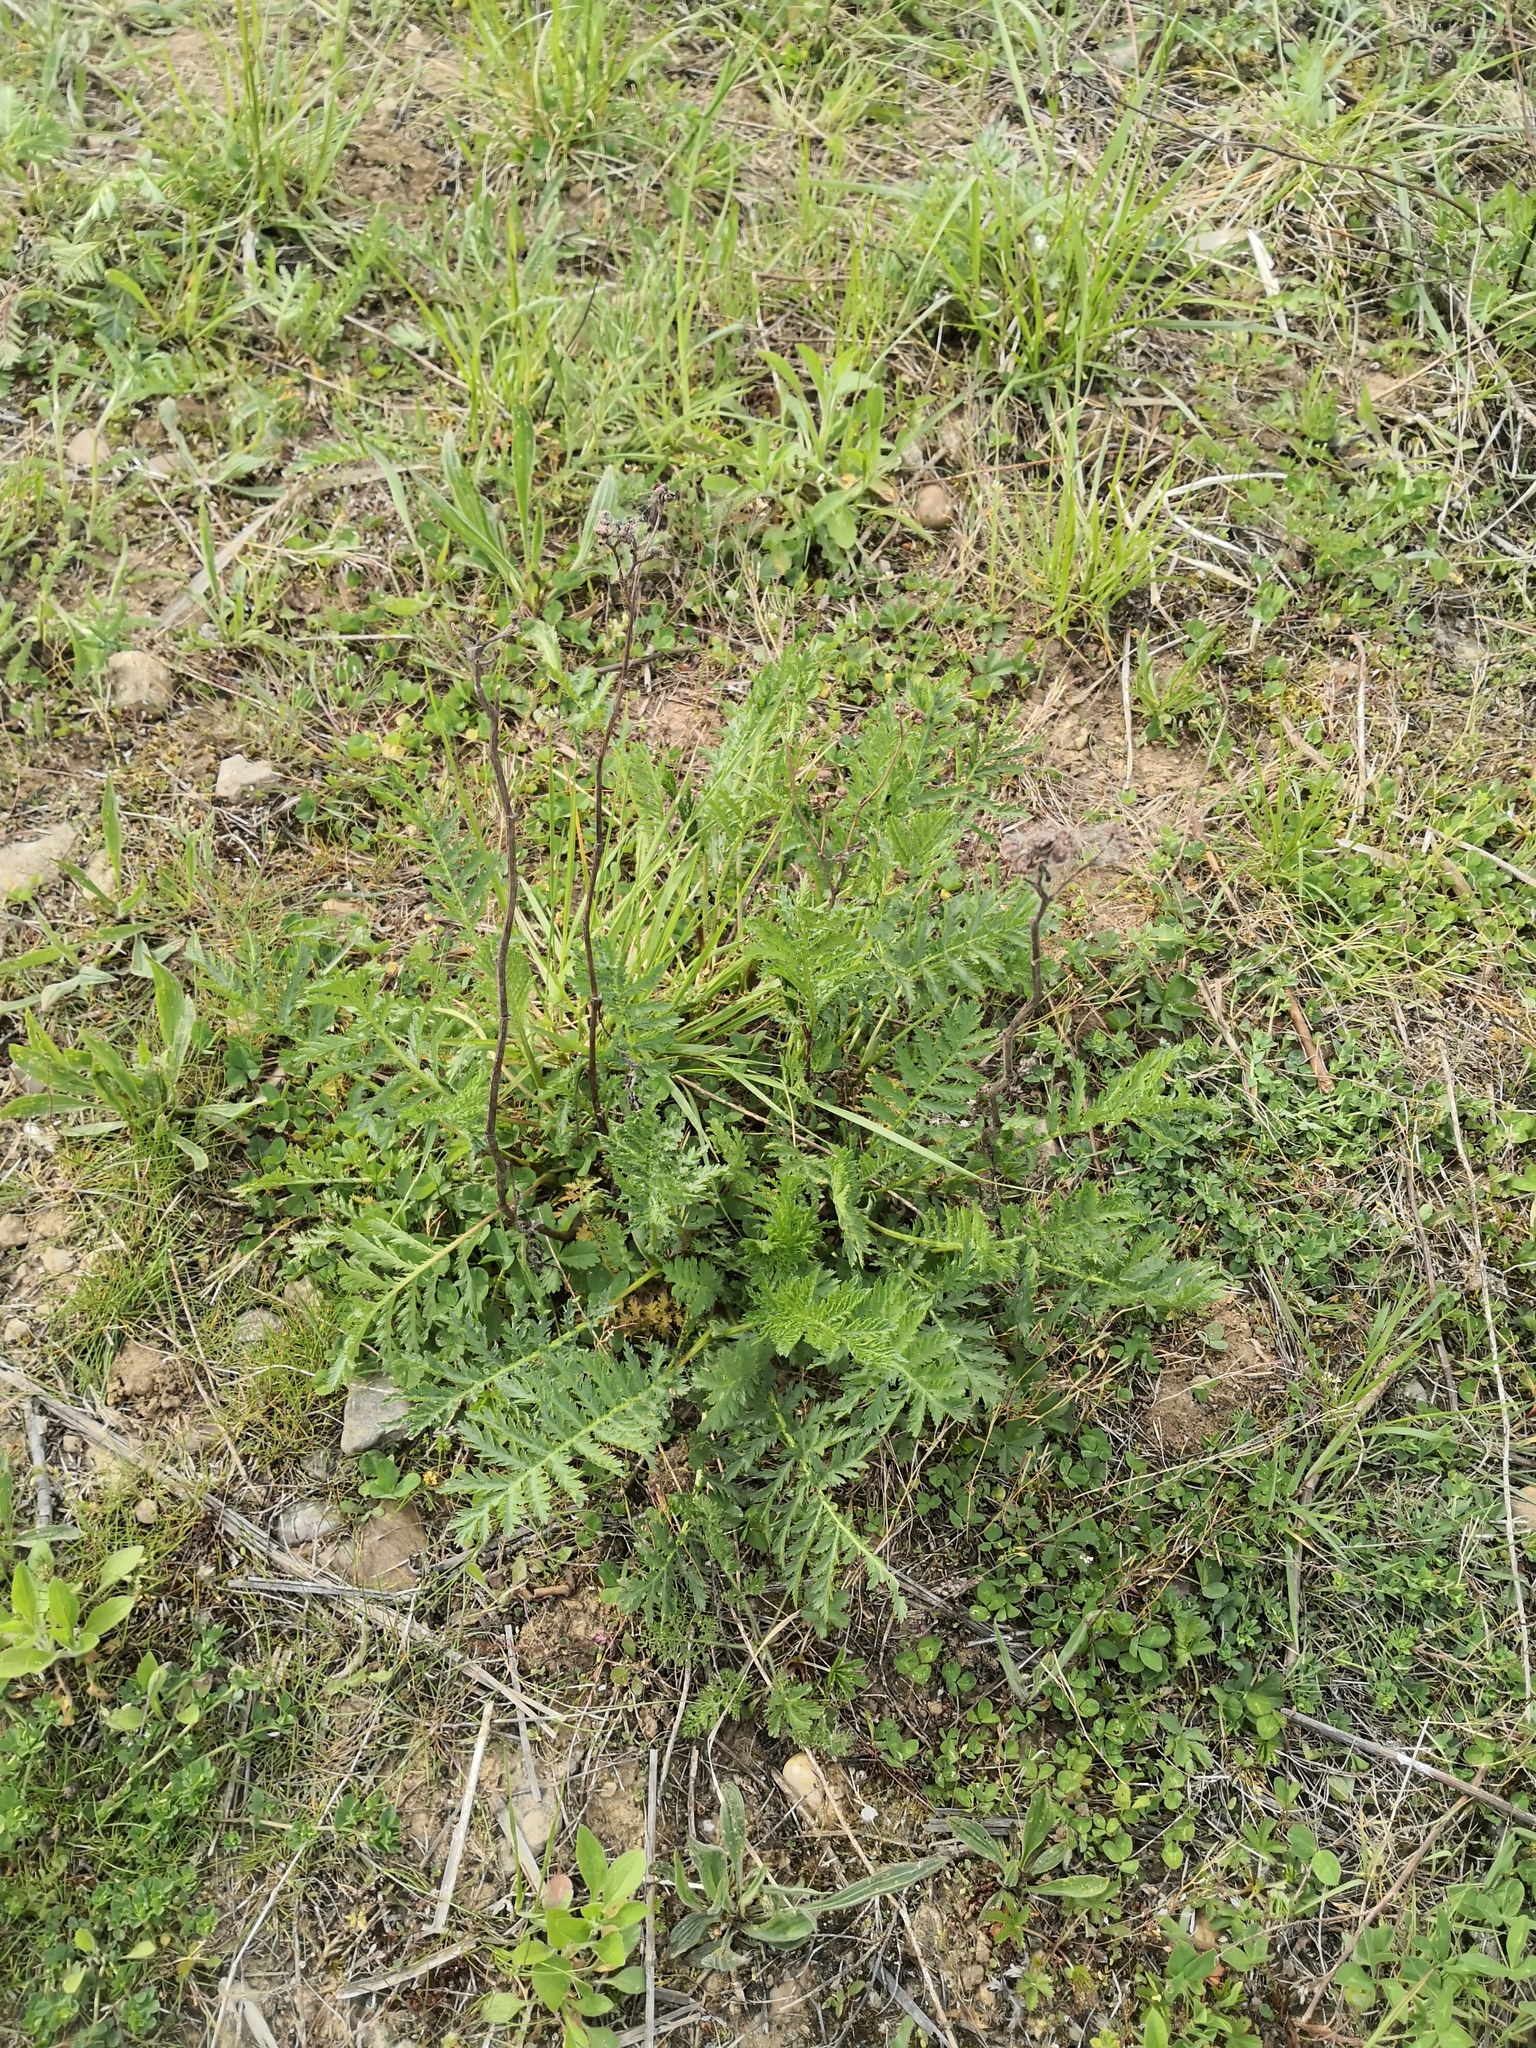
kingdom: Plantae
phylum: Tracheophyta
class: Magnoliopsida
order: Asterales
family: Asteraceae
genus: Tanacetum
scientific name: Tanacetum vulgare
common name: Common tansy
